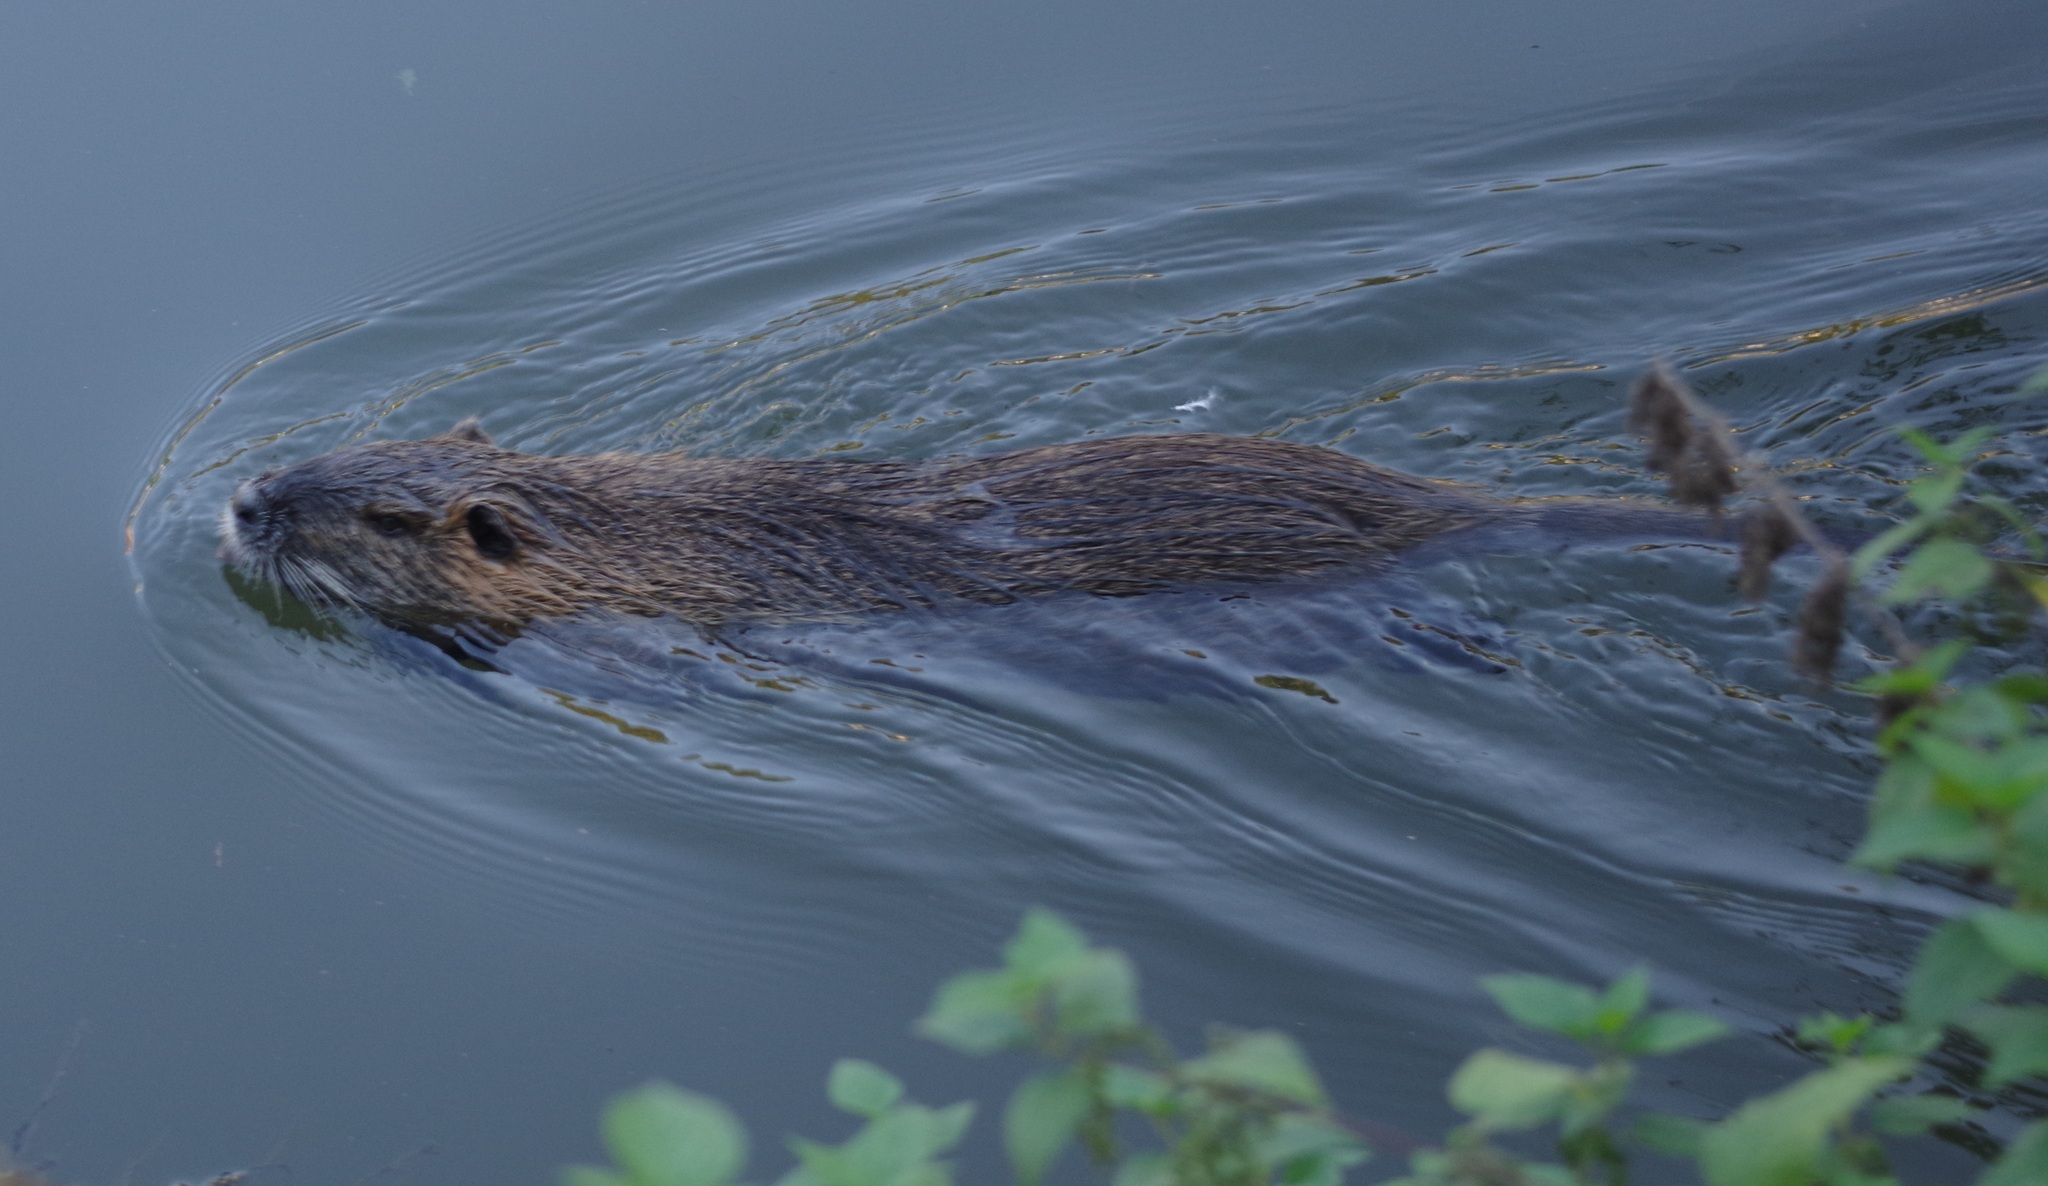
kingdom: Animalia
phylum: Chordata
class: Mammalia
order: Rodentia
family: Myocastoridae
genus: Myocastor
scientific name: Myocastor coypus
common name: Coypu
